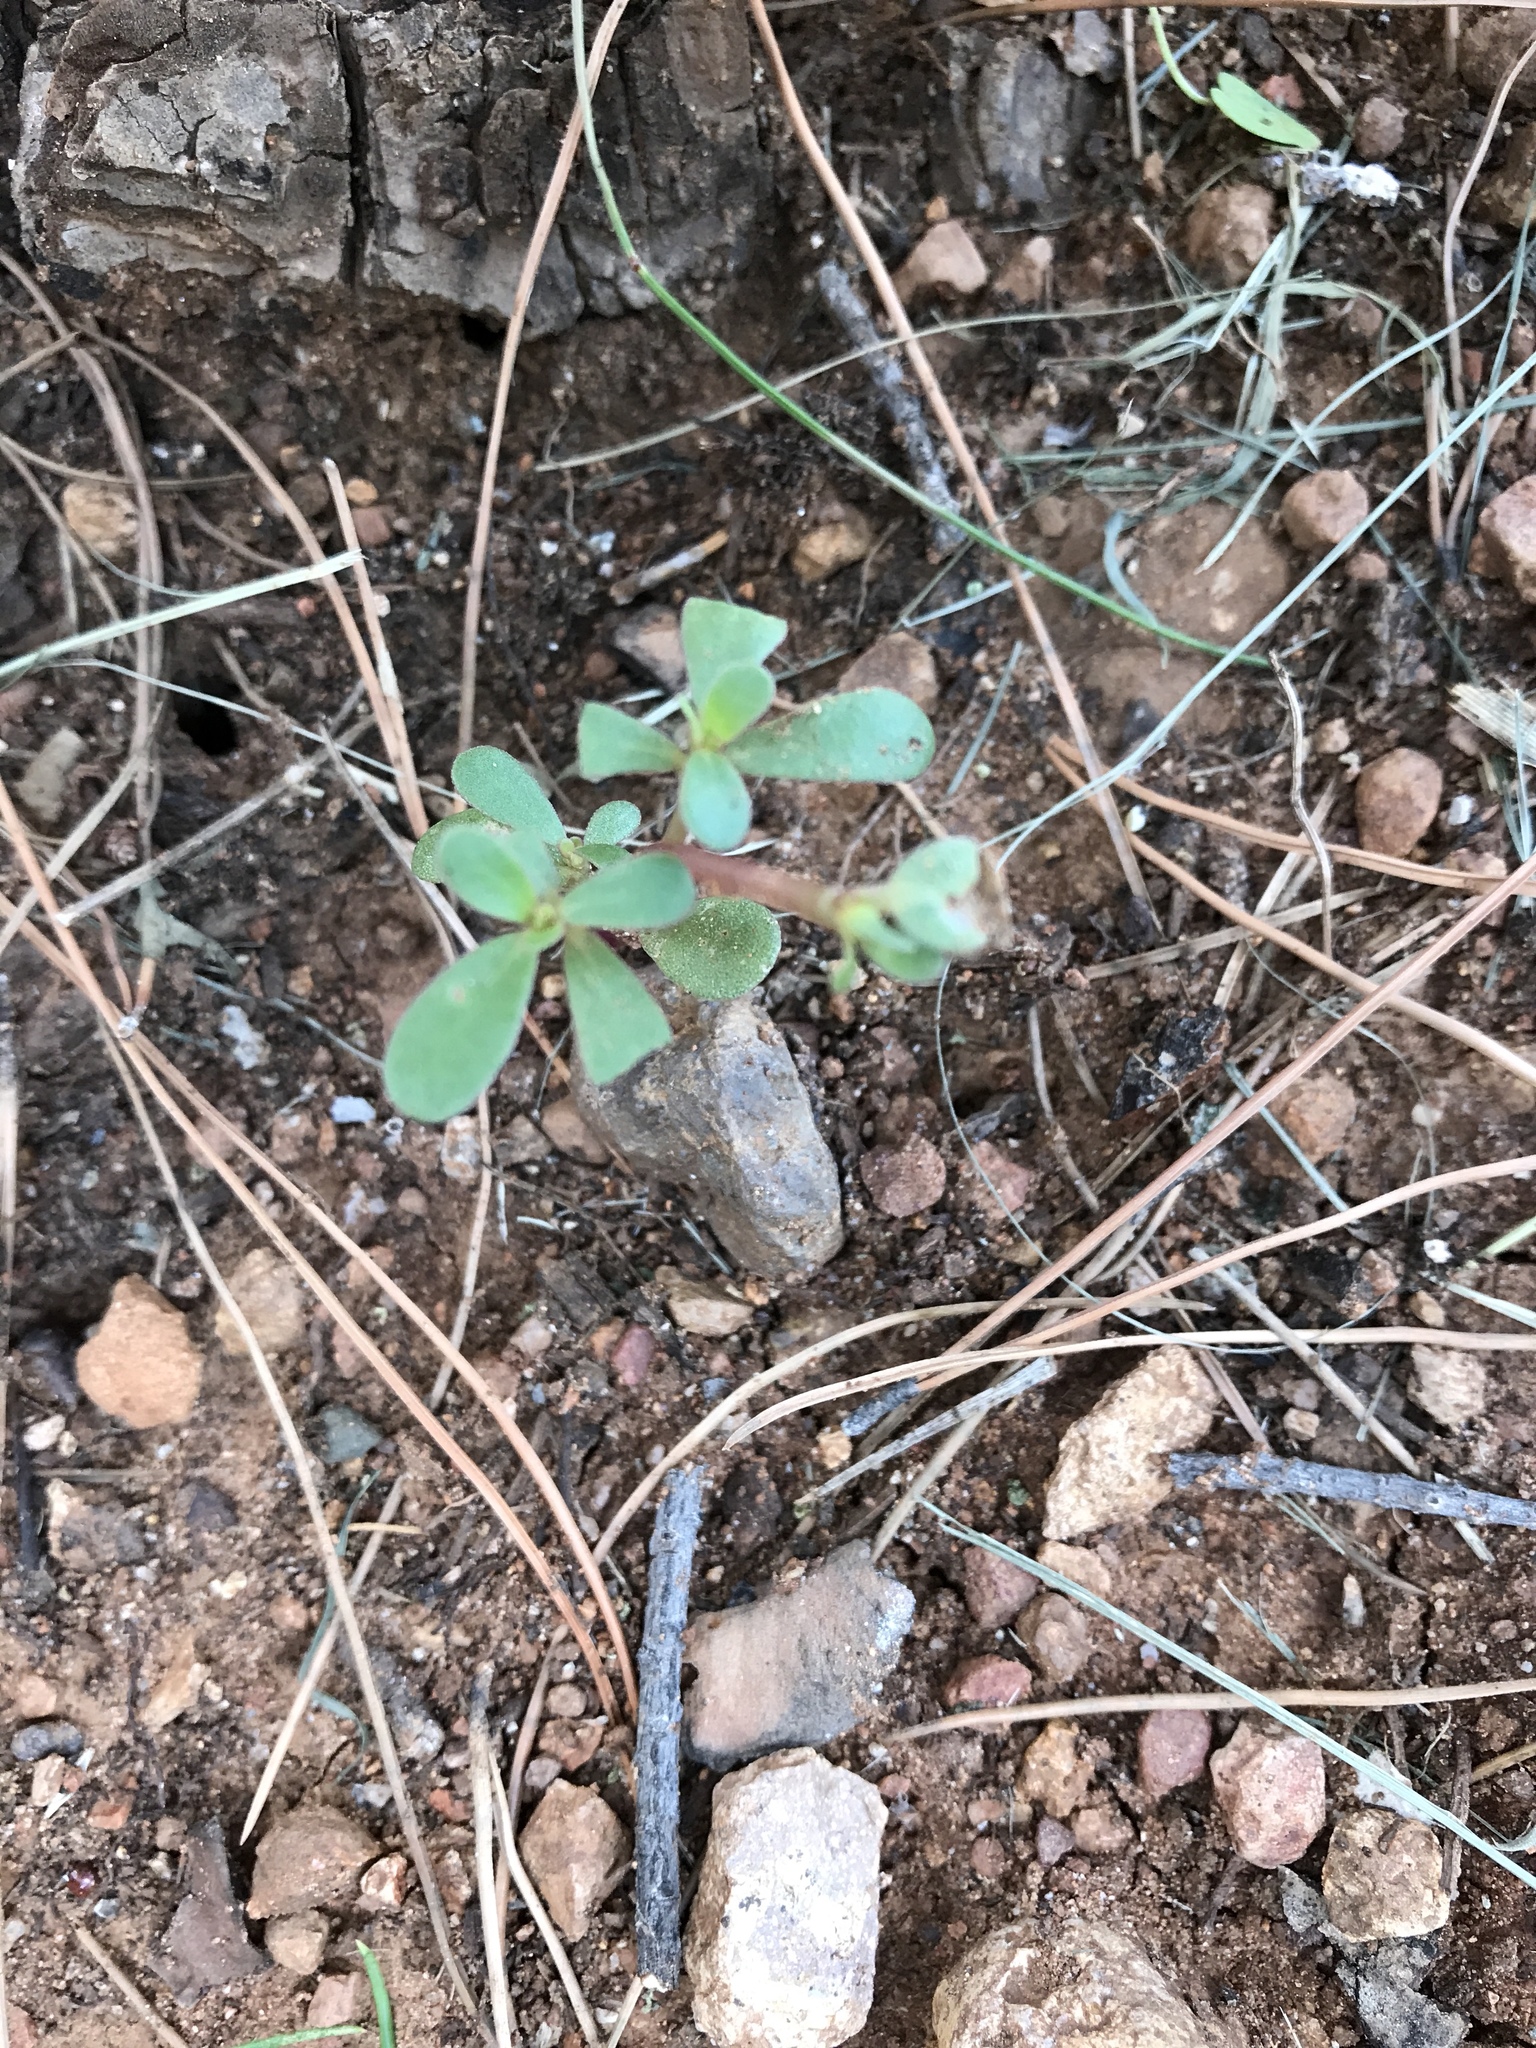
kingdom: Plantae
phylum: Tracheophyta
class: Magnoliopsida
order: Caryophyllales
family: Portulacaceae
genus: Portulaca
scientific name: Portulaca oleracea
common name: Common purslane
